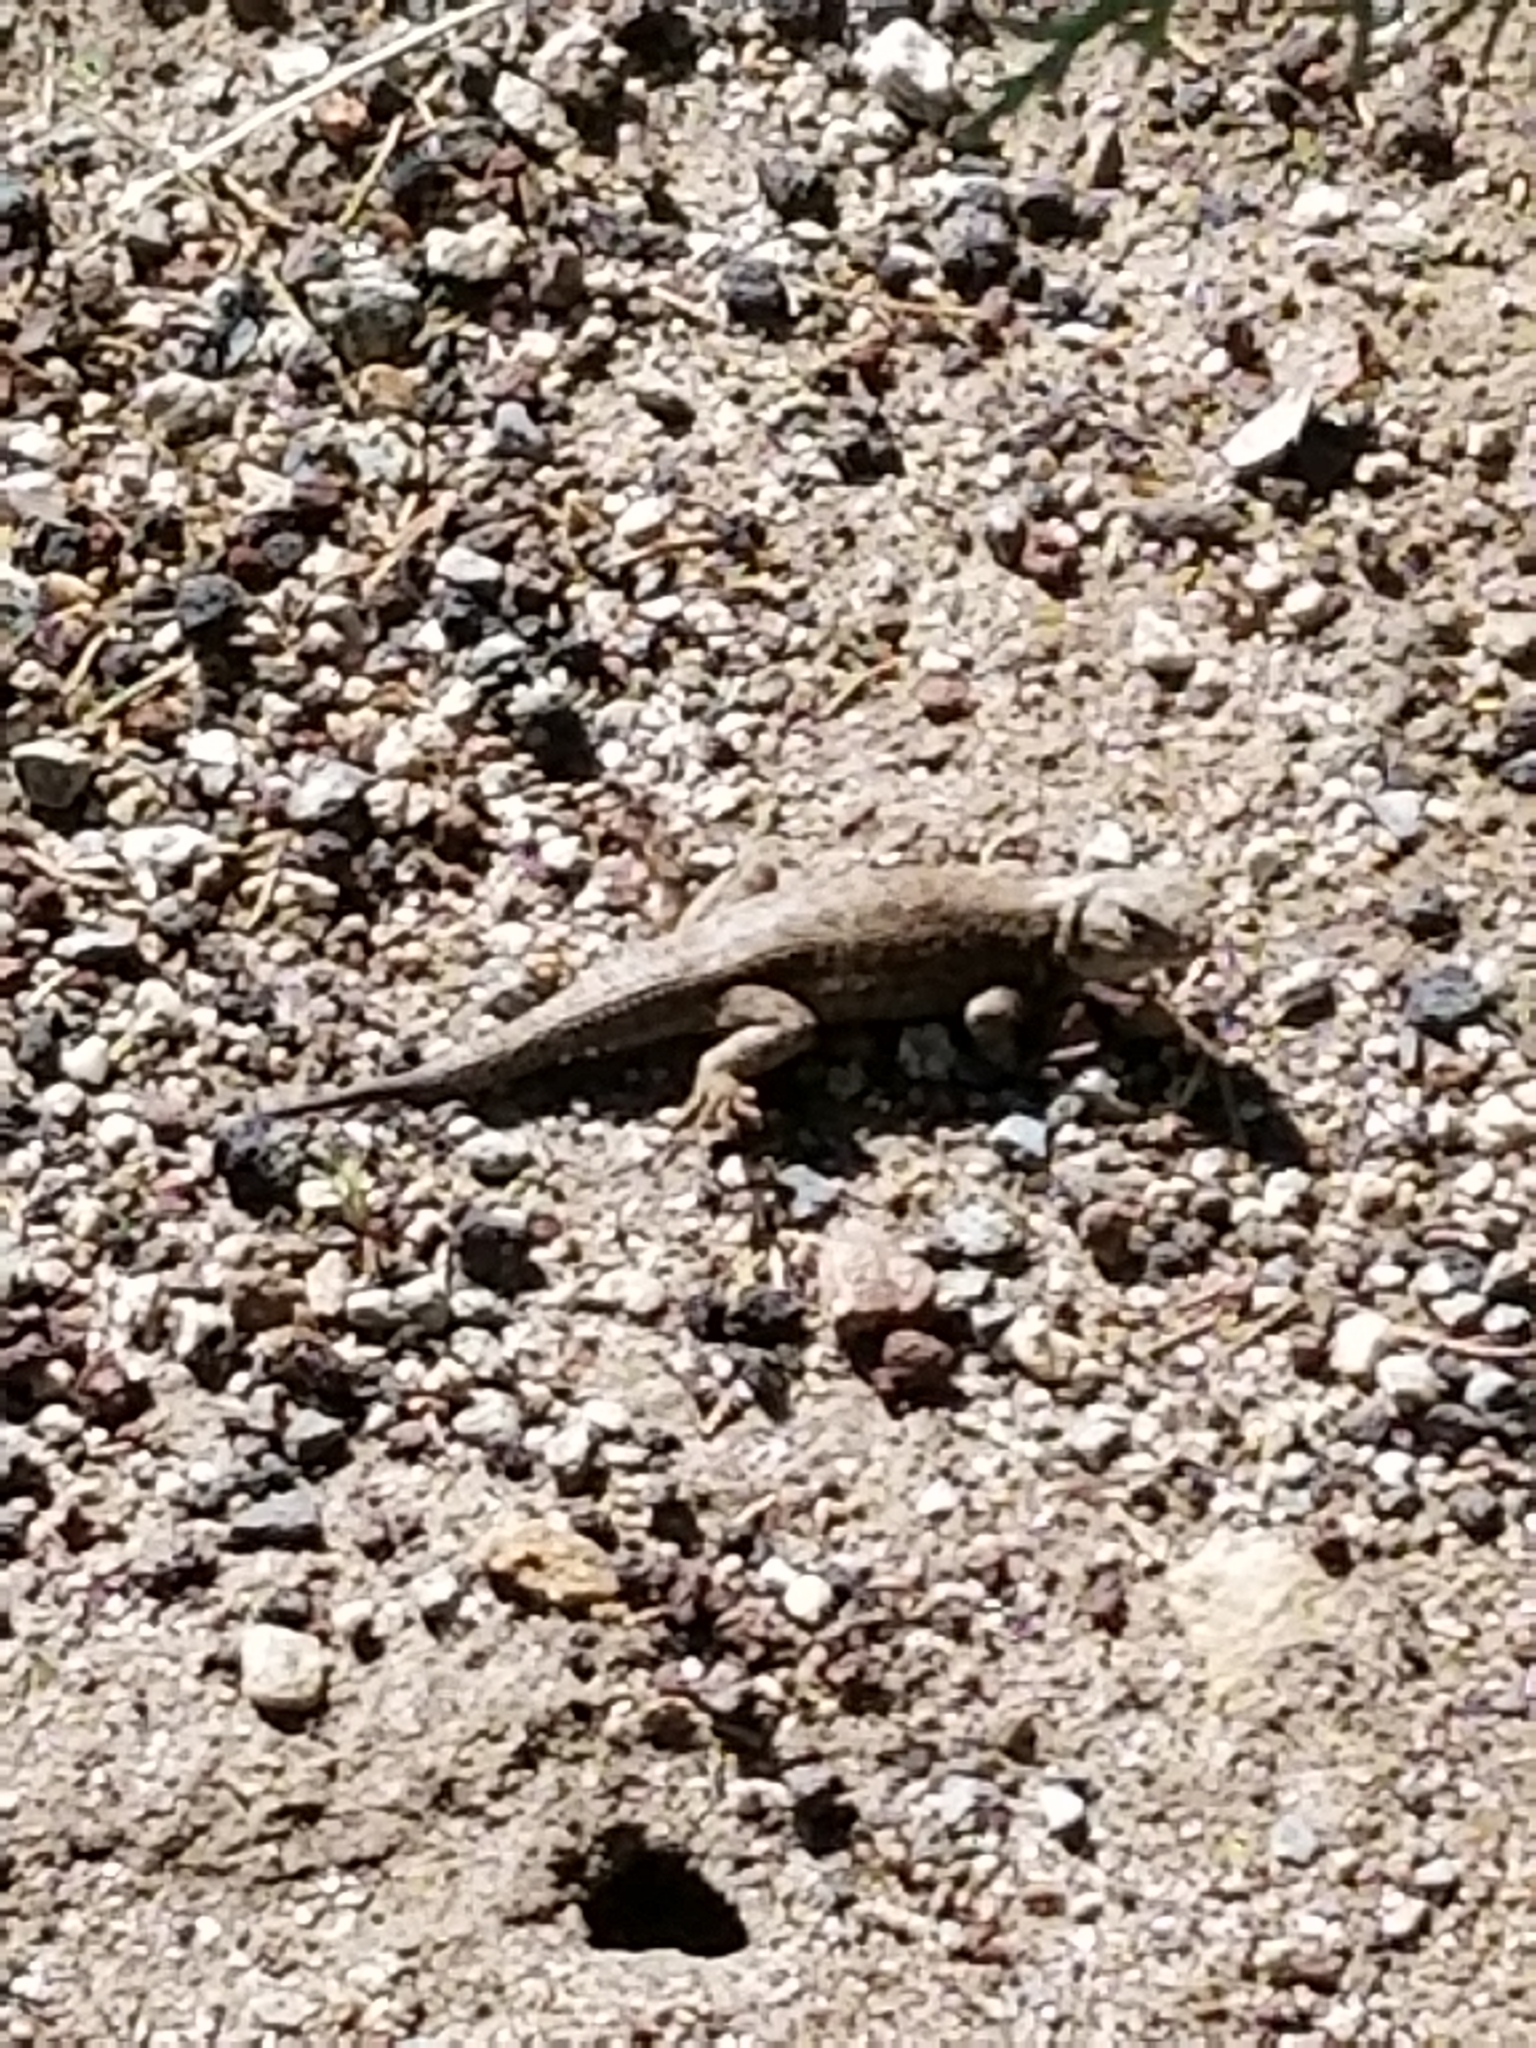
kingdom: Animalia
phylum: Chordata
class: Squamata
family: Phrynosomatidae
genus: Sceloporus
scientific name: Sceloporus graciosus
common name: Sagebrush lizard
